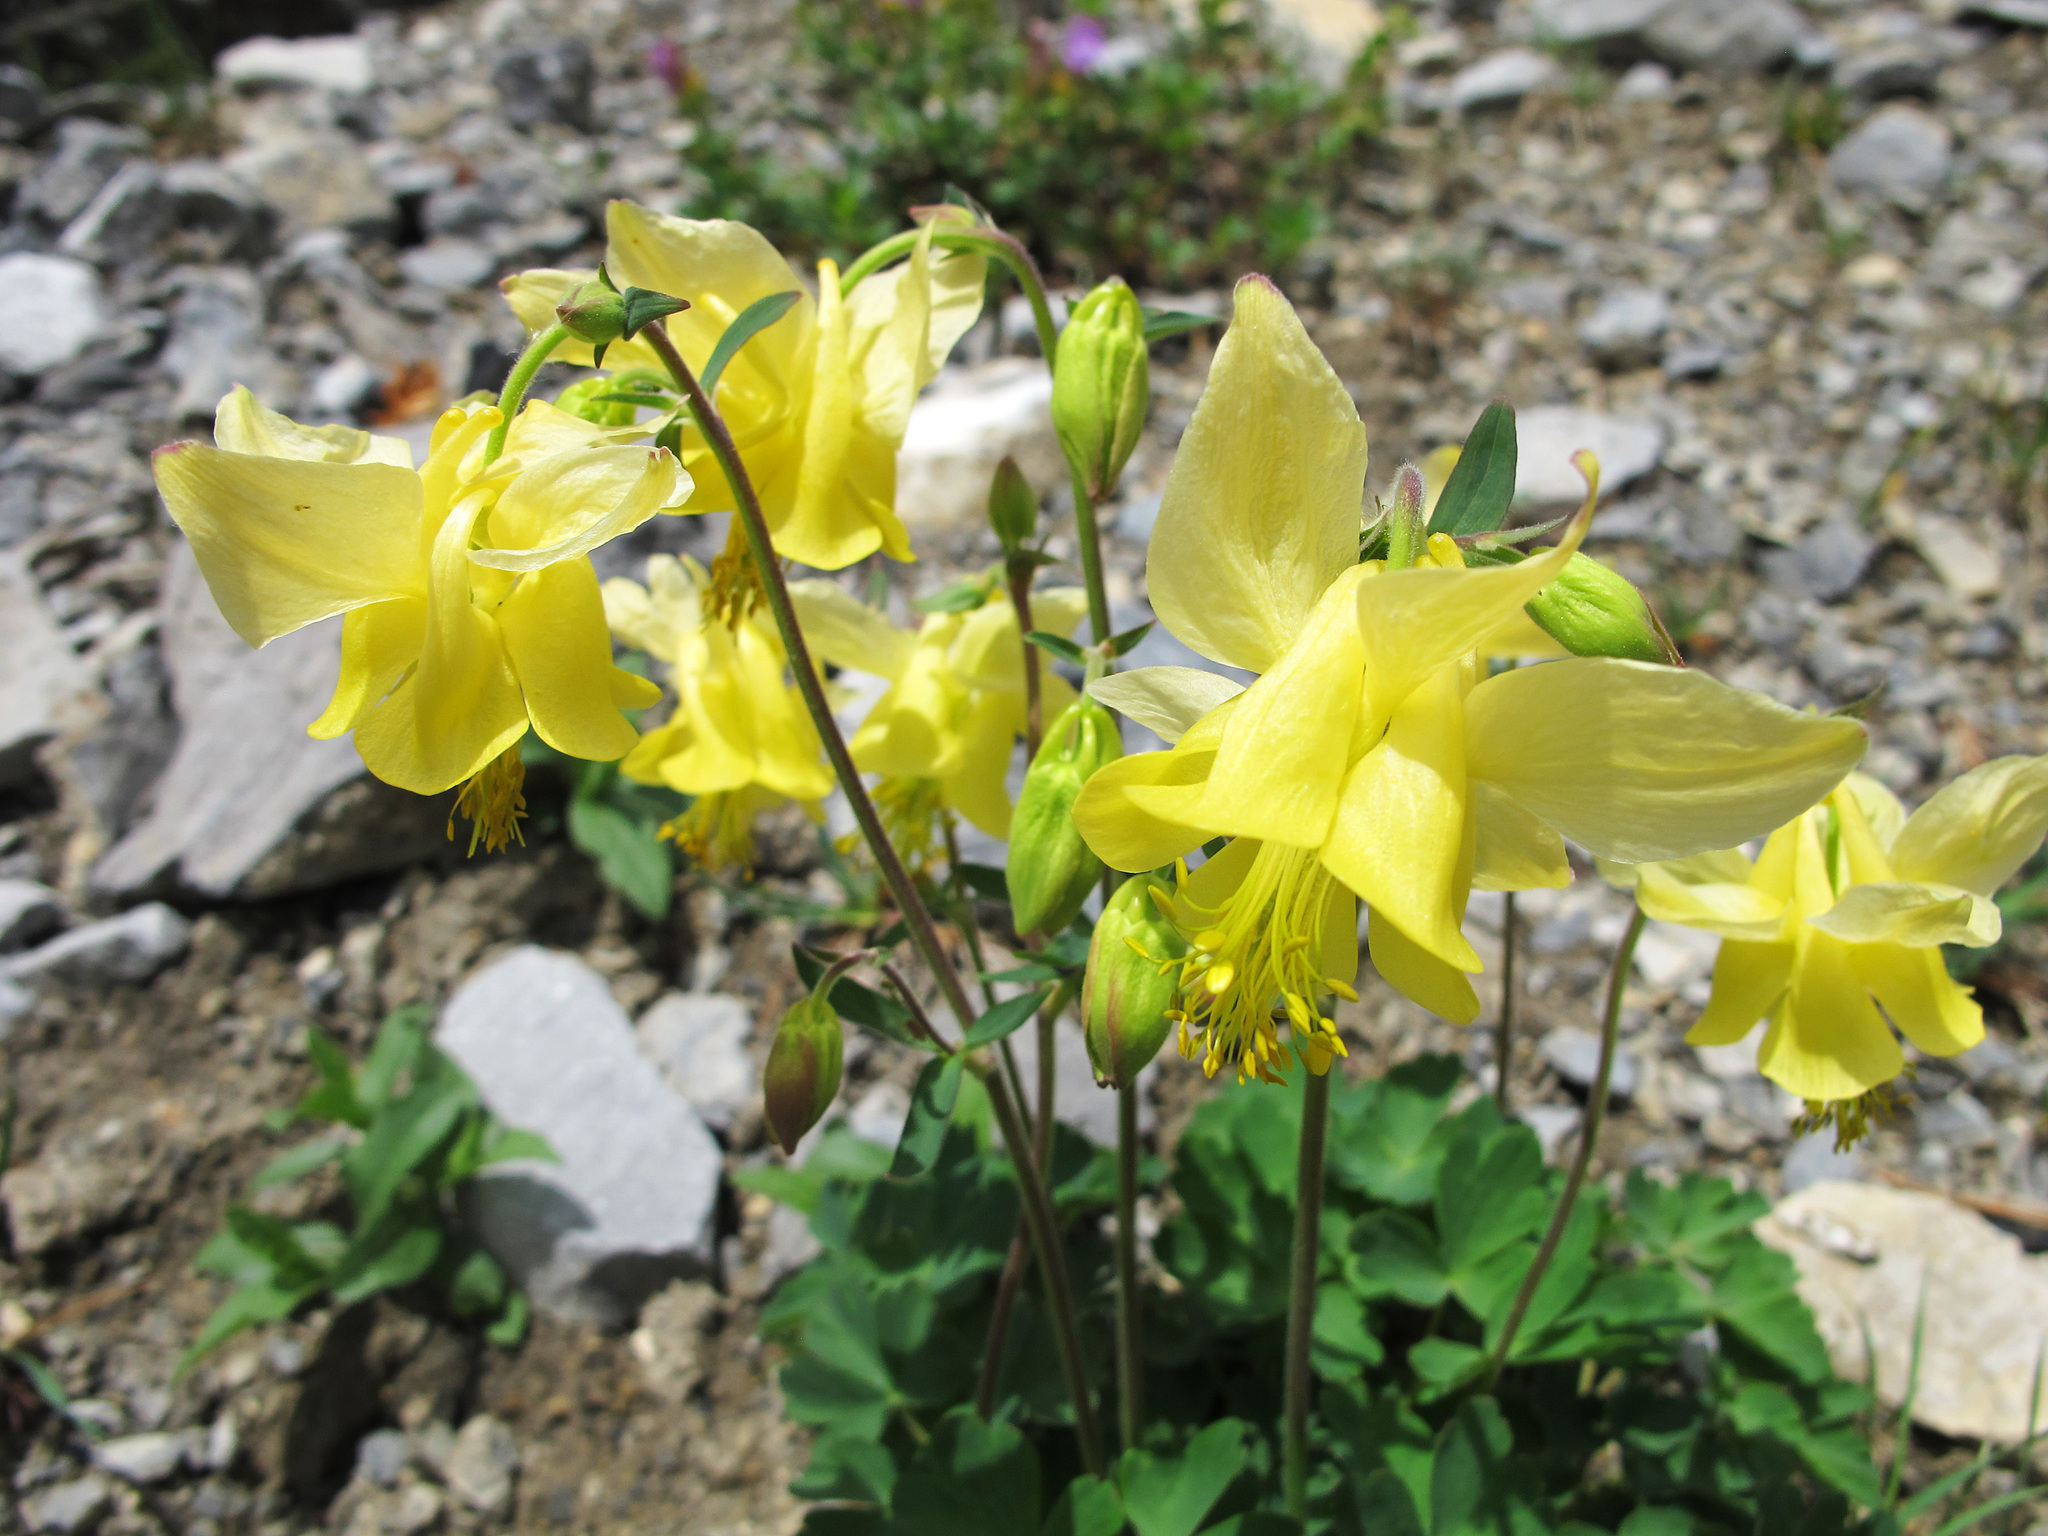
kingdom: Plantae
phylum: Tracheophyta
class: Magnoliopsida
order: Ranunculales
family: Ranunculaceae
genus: Aquilegia
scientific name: Aquilegia flavescens
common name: Yellow columbine
